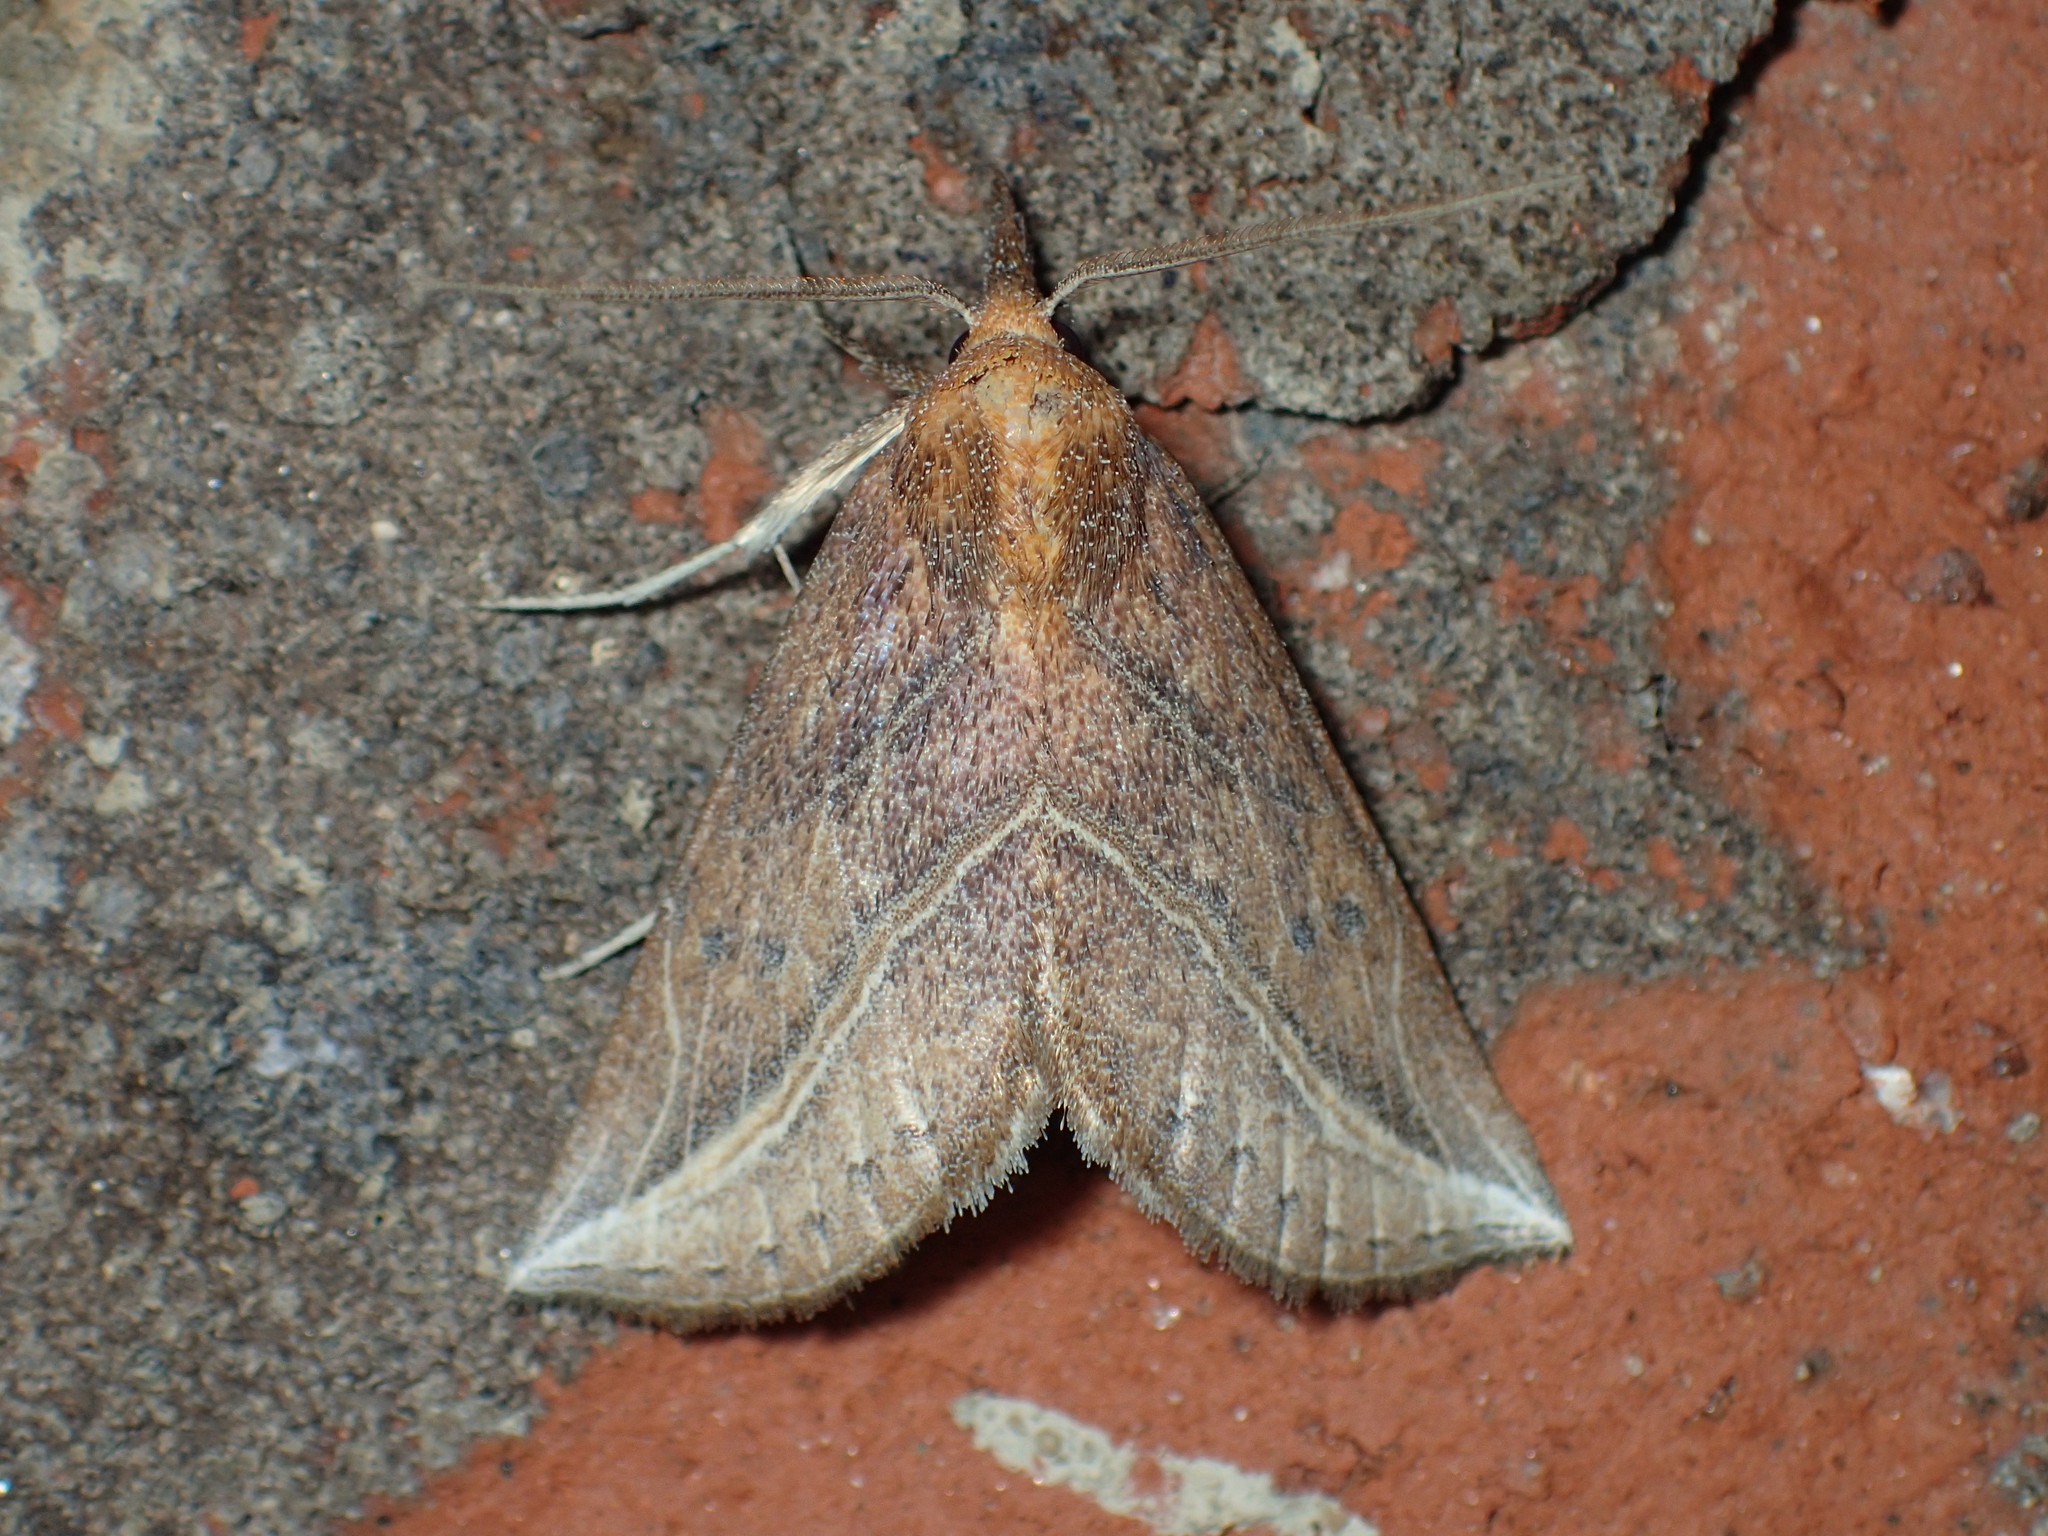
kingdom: Animalia
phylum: Arthropoda
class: Insecta
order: Lepidoptera
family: Erebidae
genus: Phyprosopus
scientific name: Phyprosopus callitrichoides
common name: Curved-lined owlet
